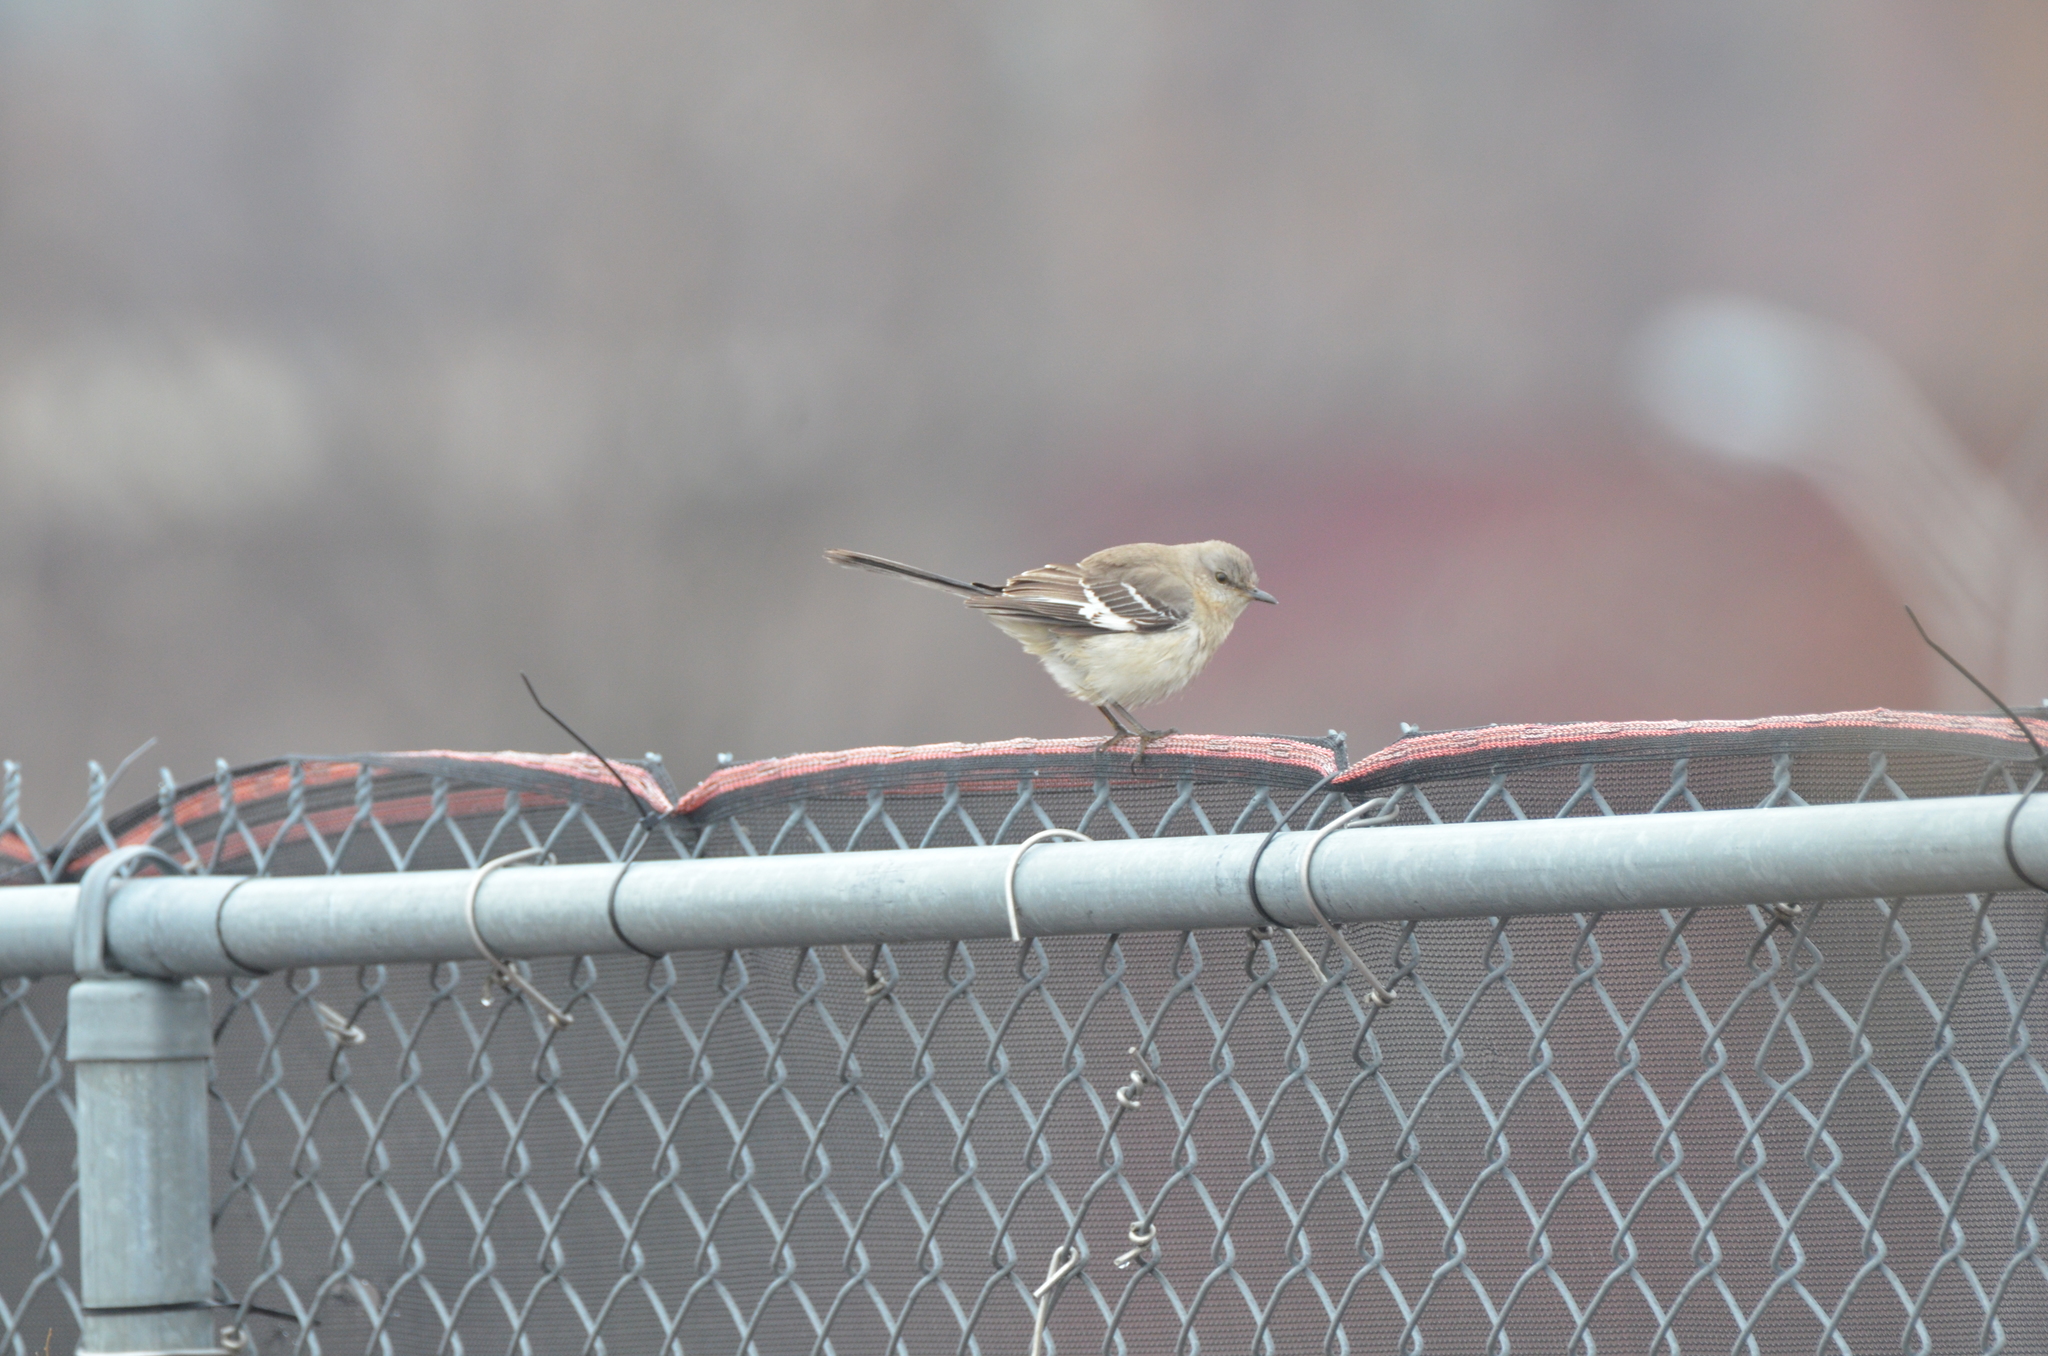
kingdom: Animalia
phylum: Chordata
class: Aves
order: Passeriformes
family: Mimidae
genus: Mimus
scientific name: Mimus polyglottos
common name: Northern mockingbird
